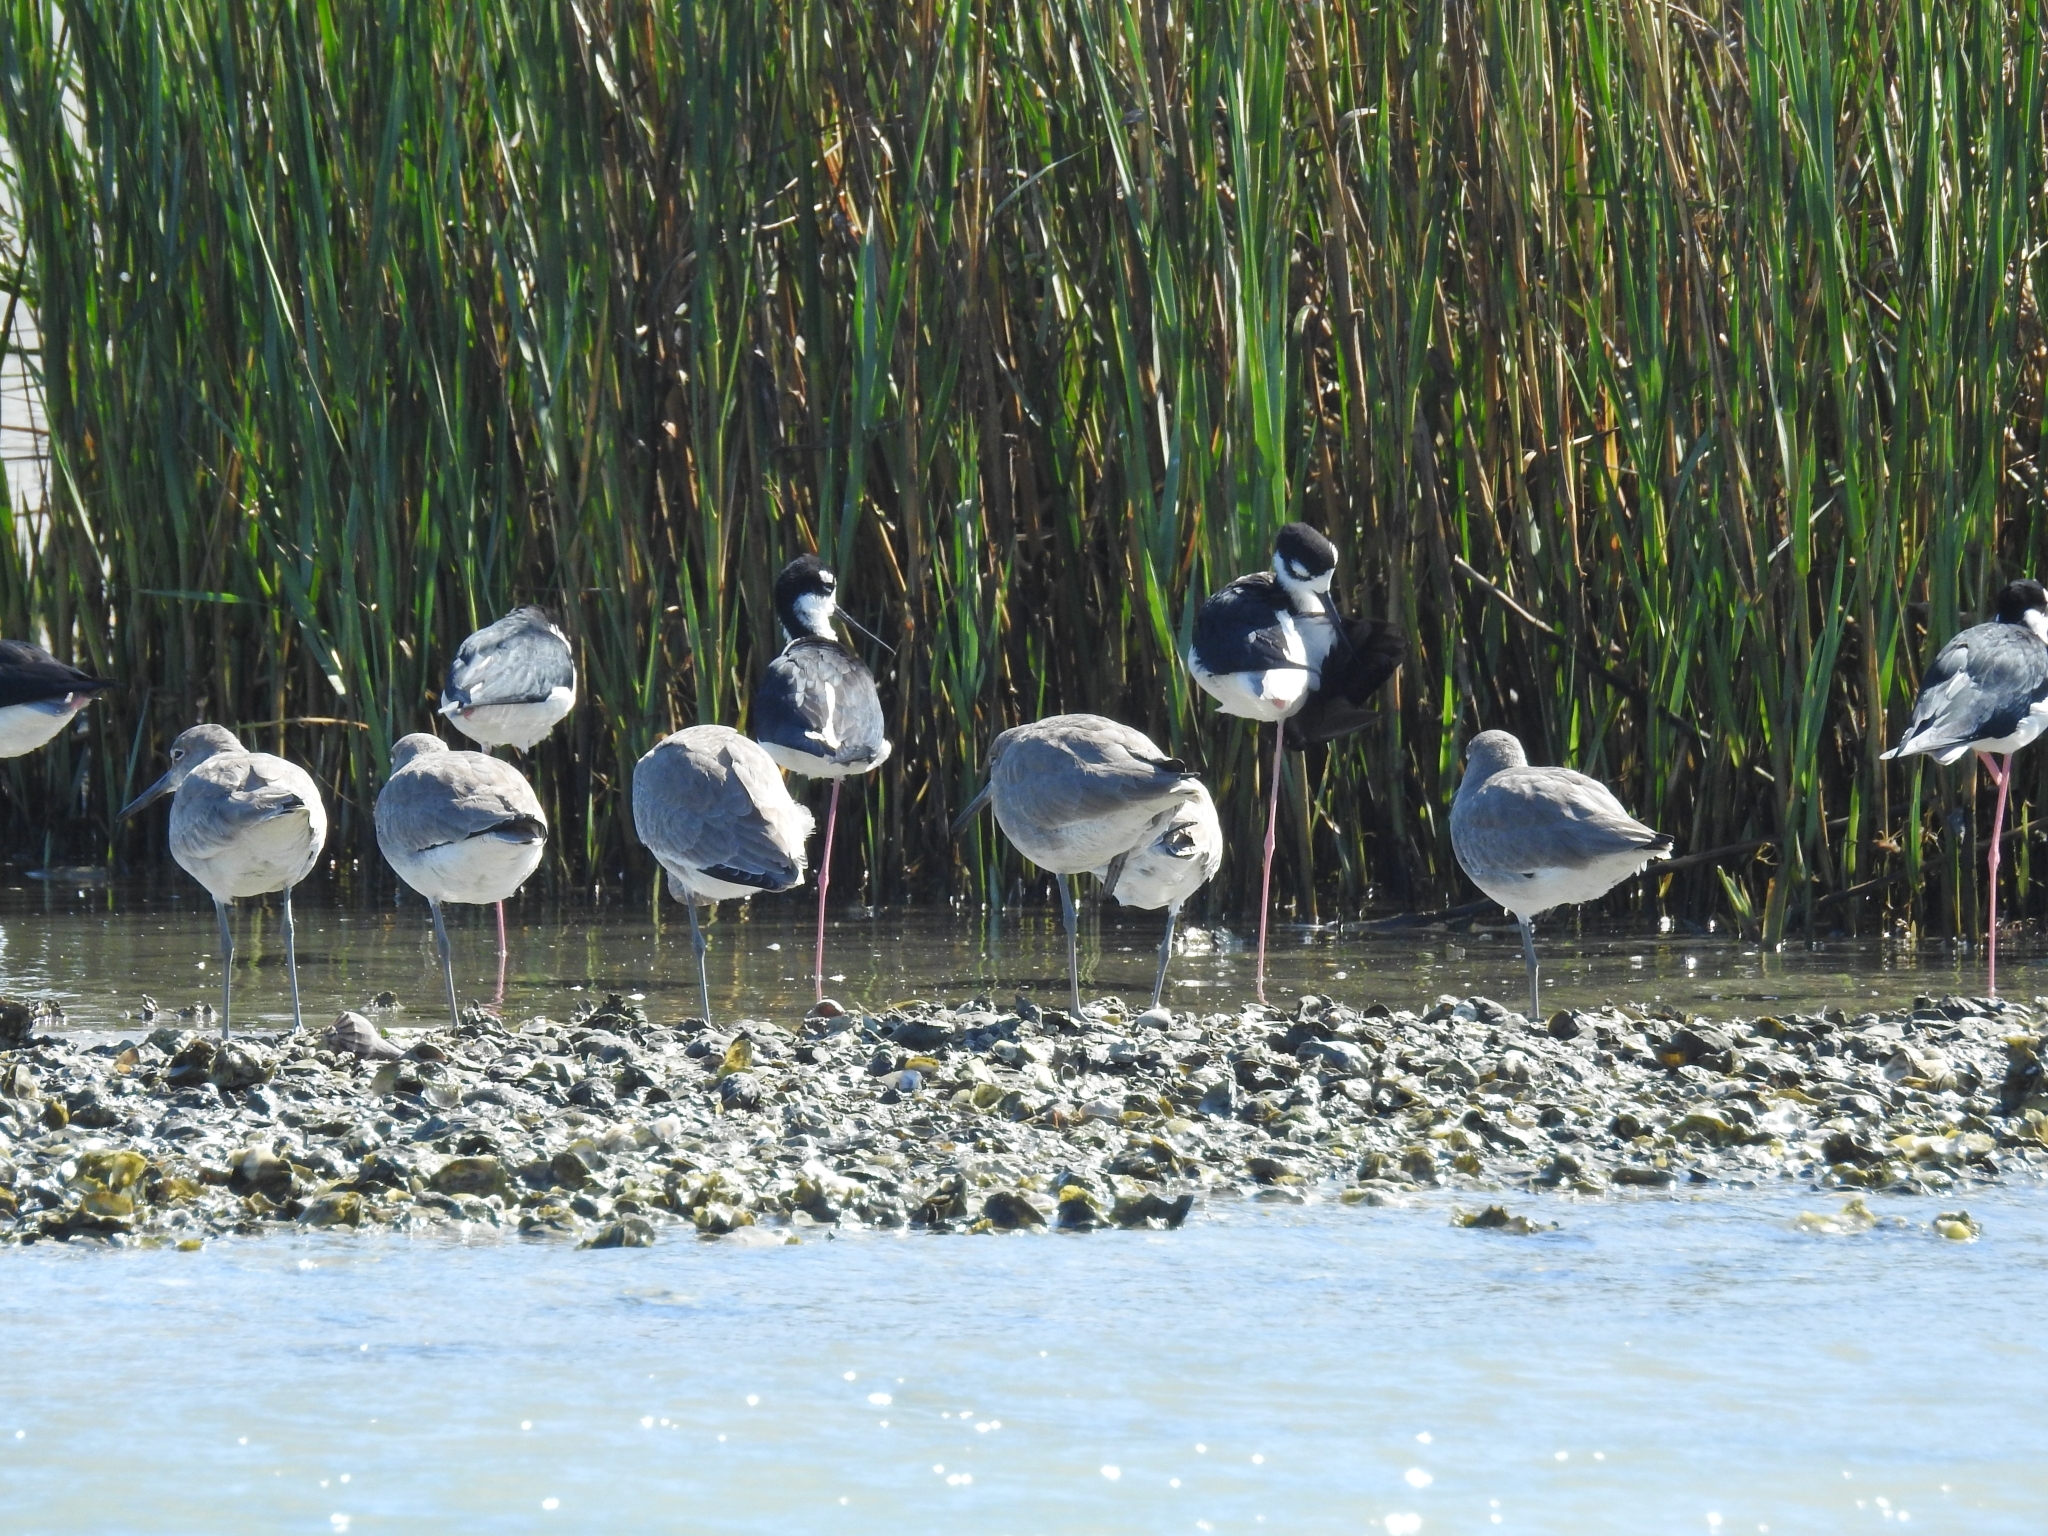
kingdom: Animalia
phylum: Chordata
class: Aves
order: Charadriiformes
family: Recurvirostridae
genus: Himantopus
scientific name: Himantopus mexicanus
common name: Black-necked stilt
